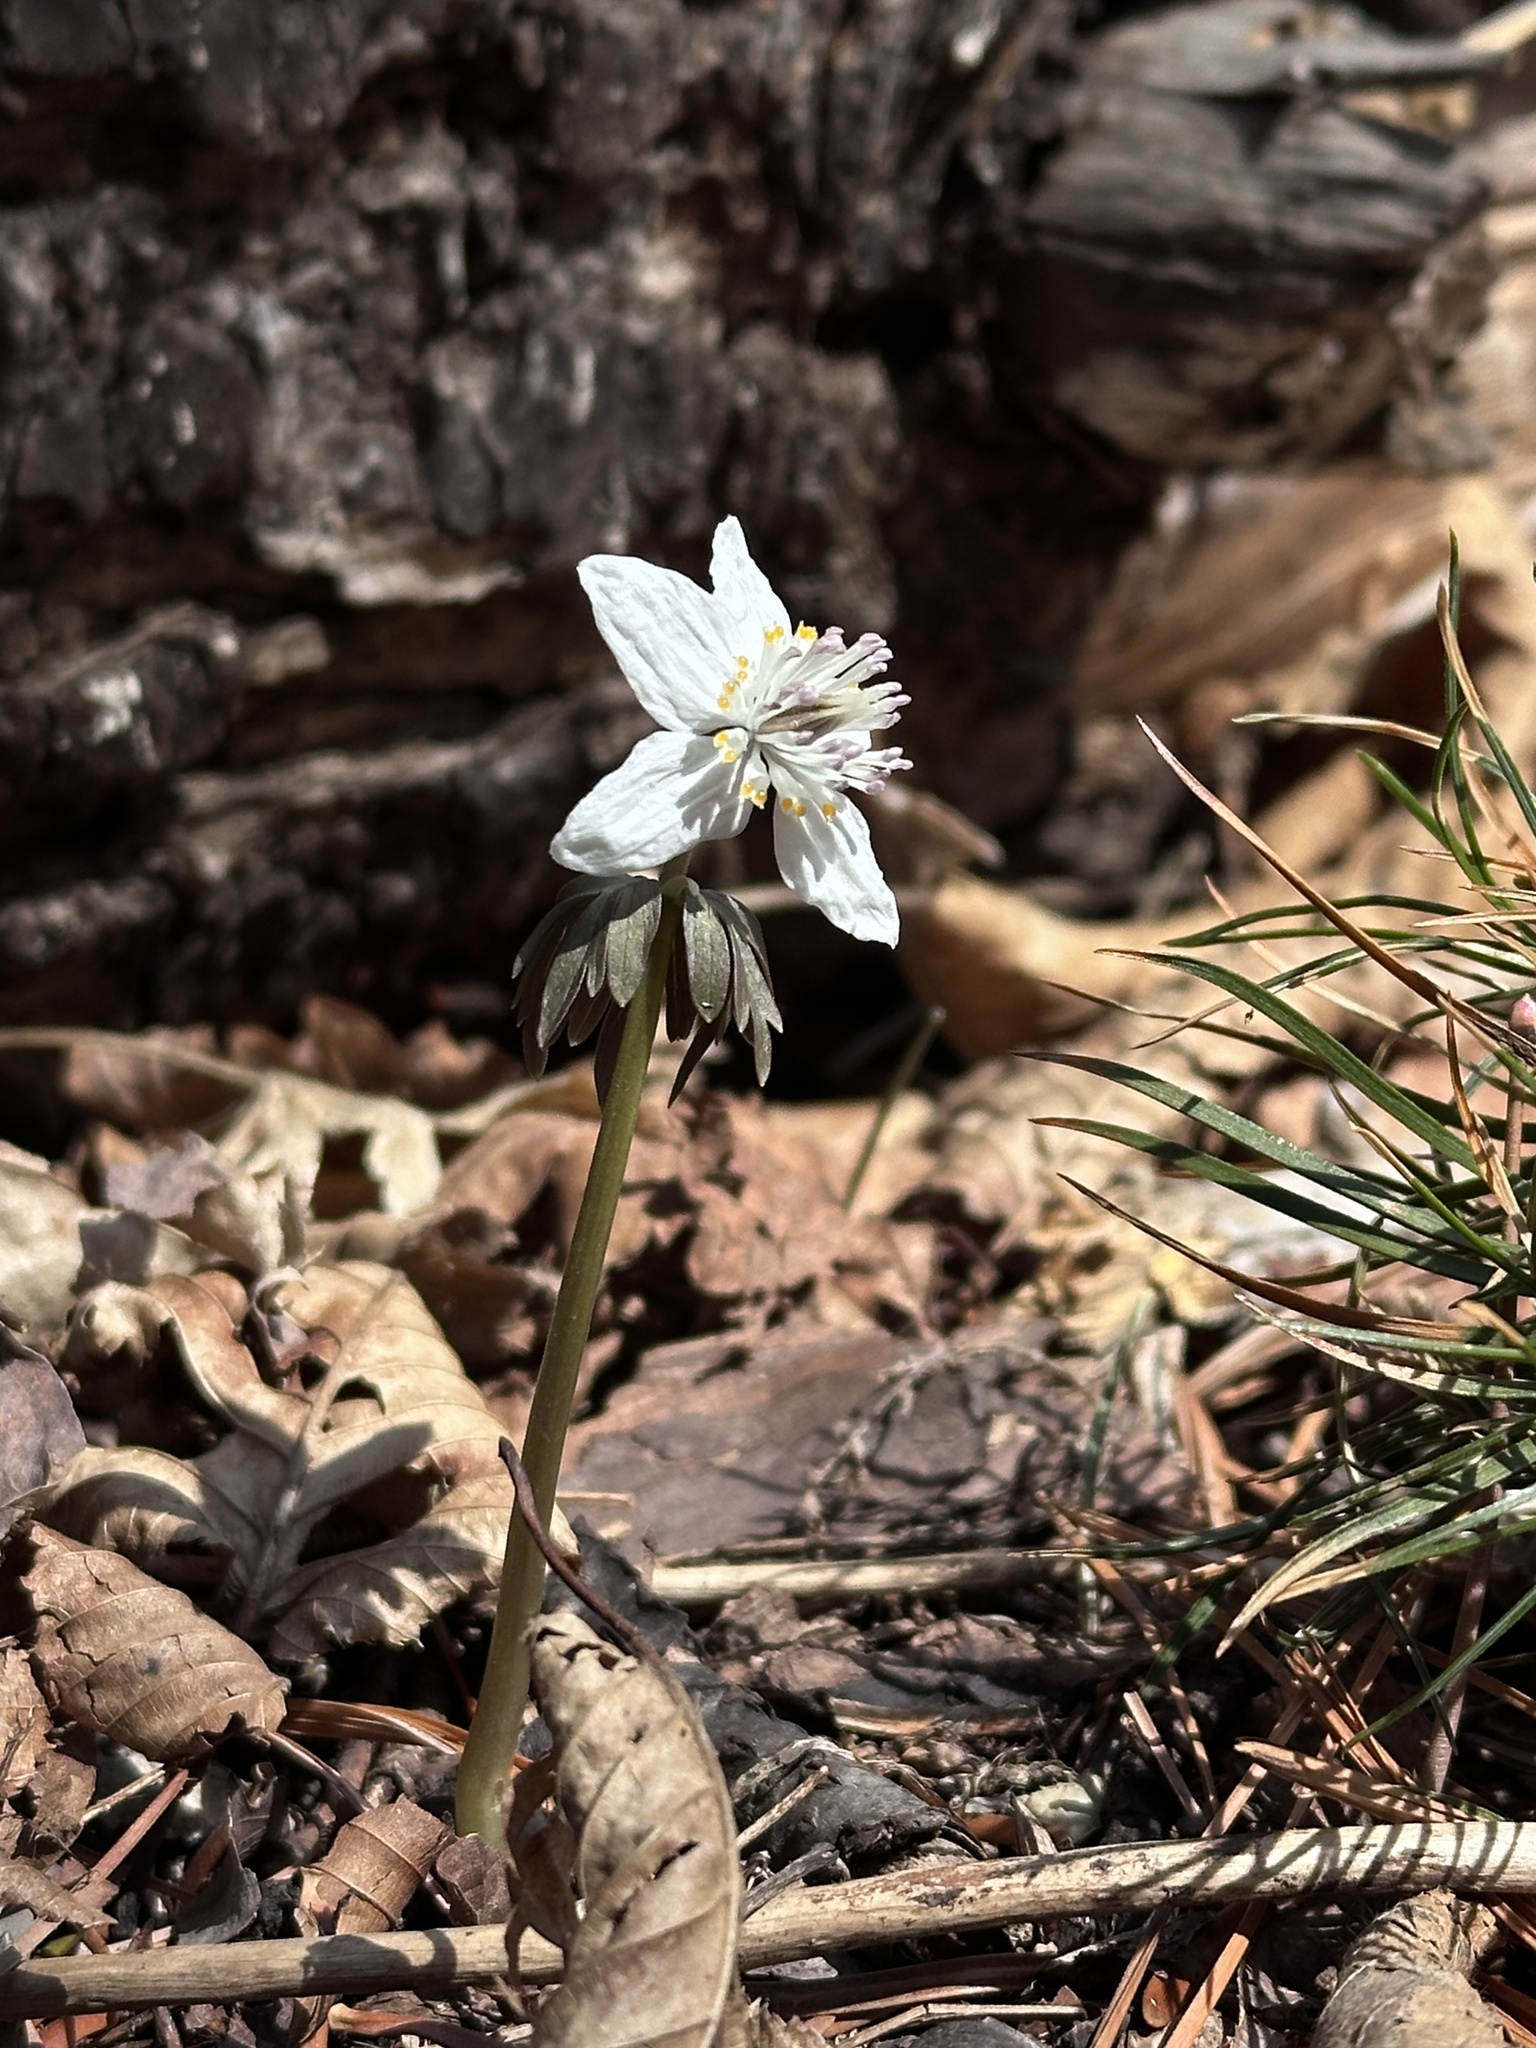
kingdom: Plantae
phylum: Tracheophyta
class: Magnoliopsida
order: Ranunculales
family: Ranunculaceae
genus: Eranthis
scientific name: Eranthis stellata
